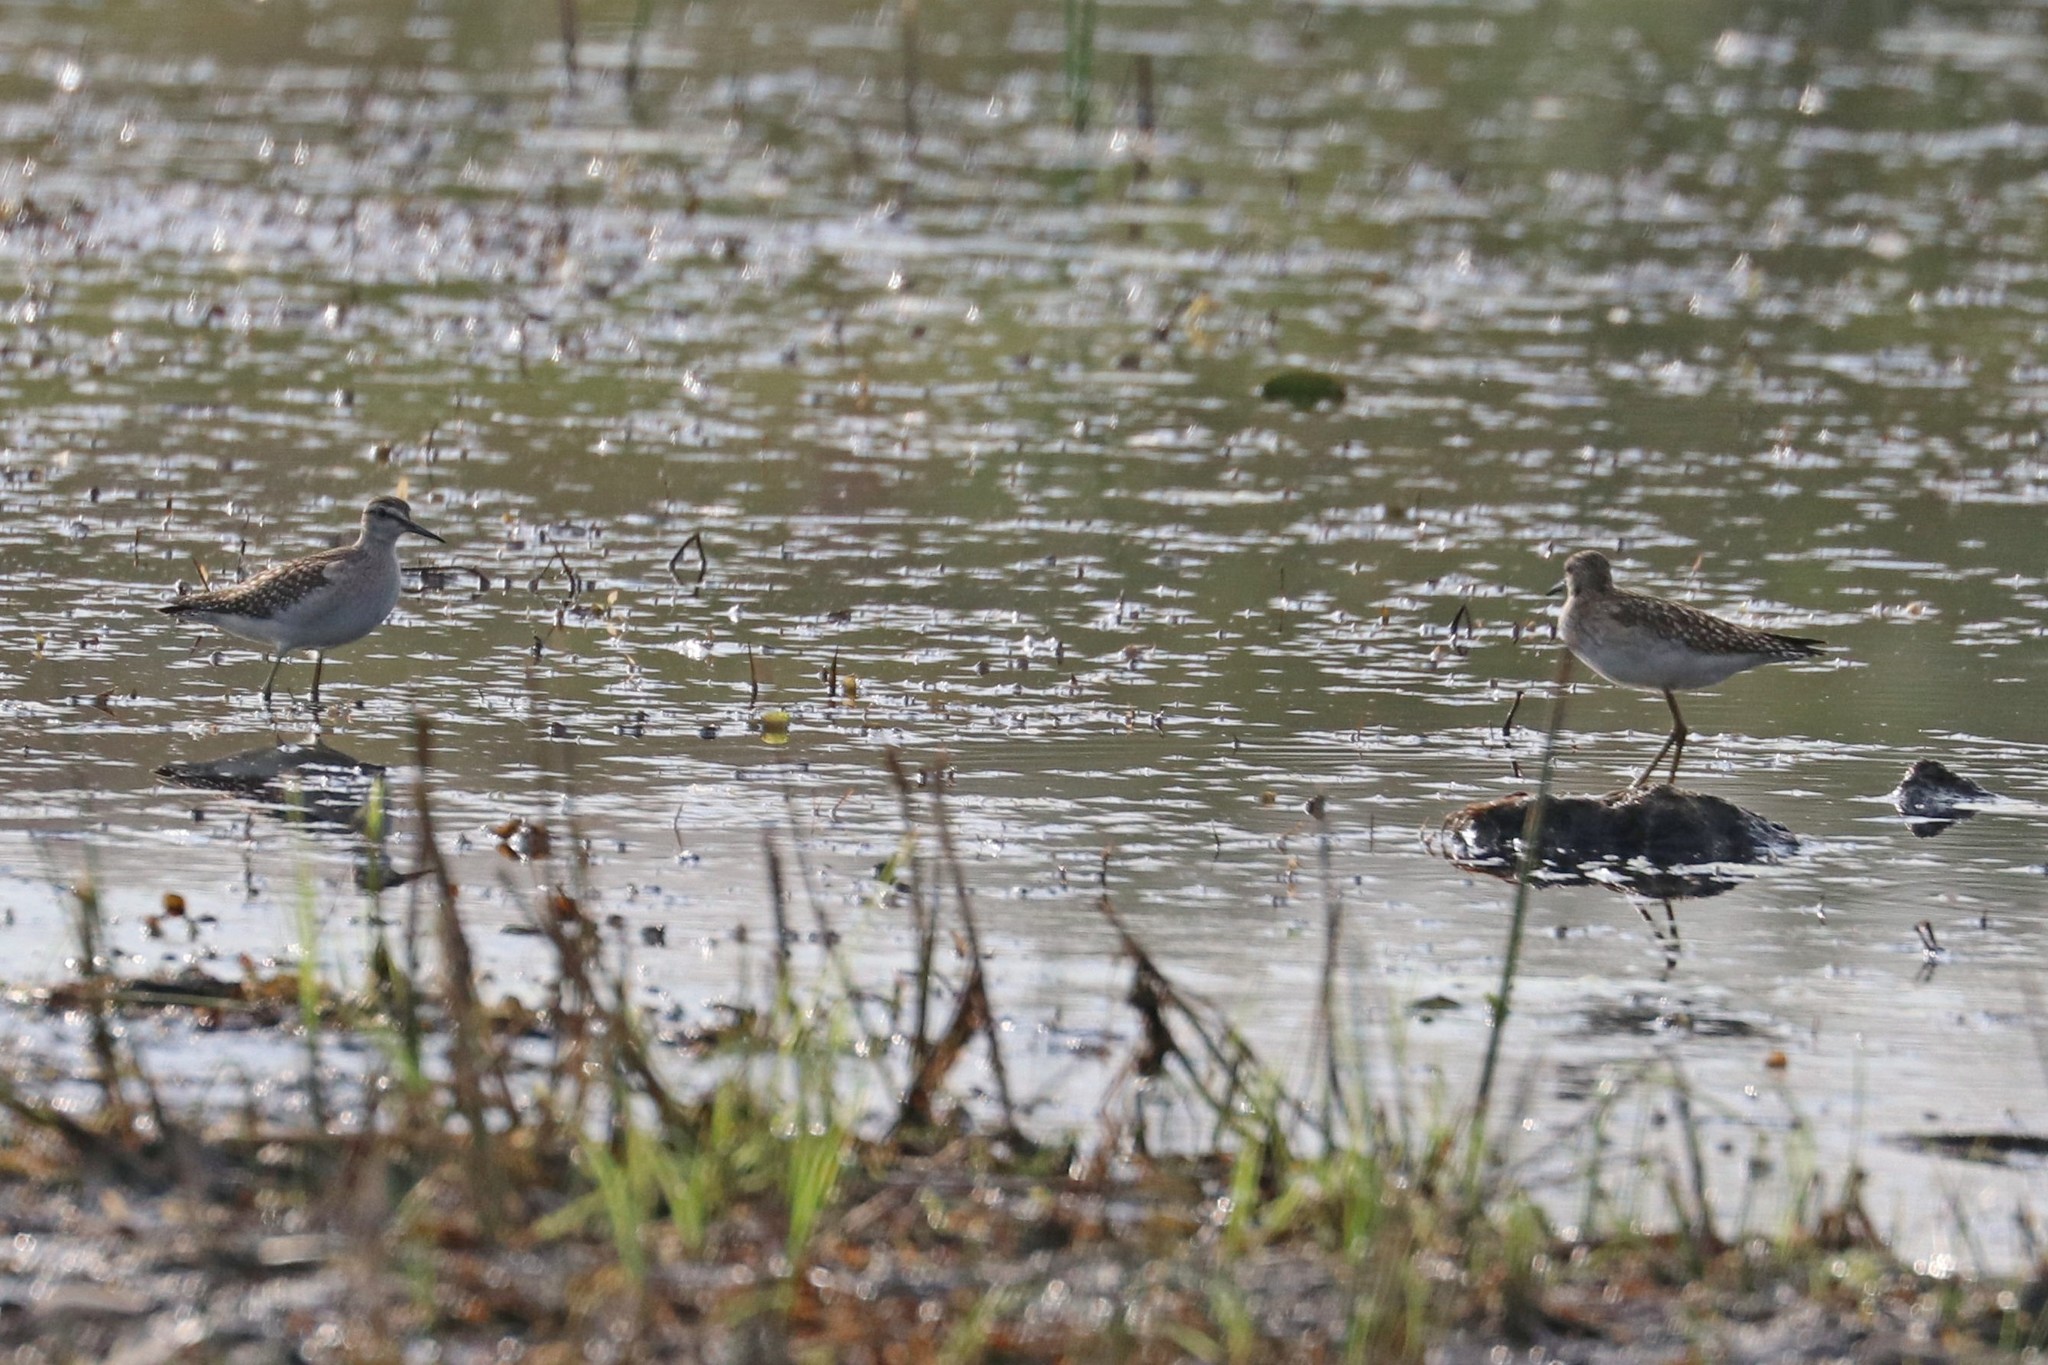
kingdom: Animalia
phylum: Chordata
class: Aves
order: Charadriiformes
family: Scolopacidae
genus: Tringa
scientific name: Tringa glareola
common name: Wood sandpiper
